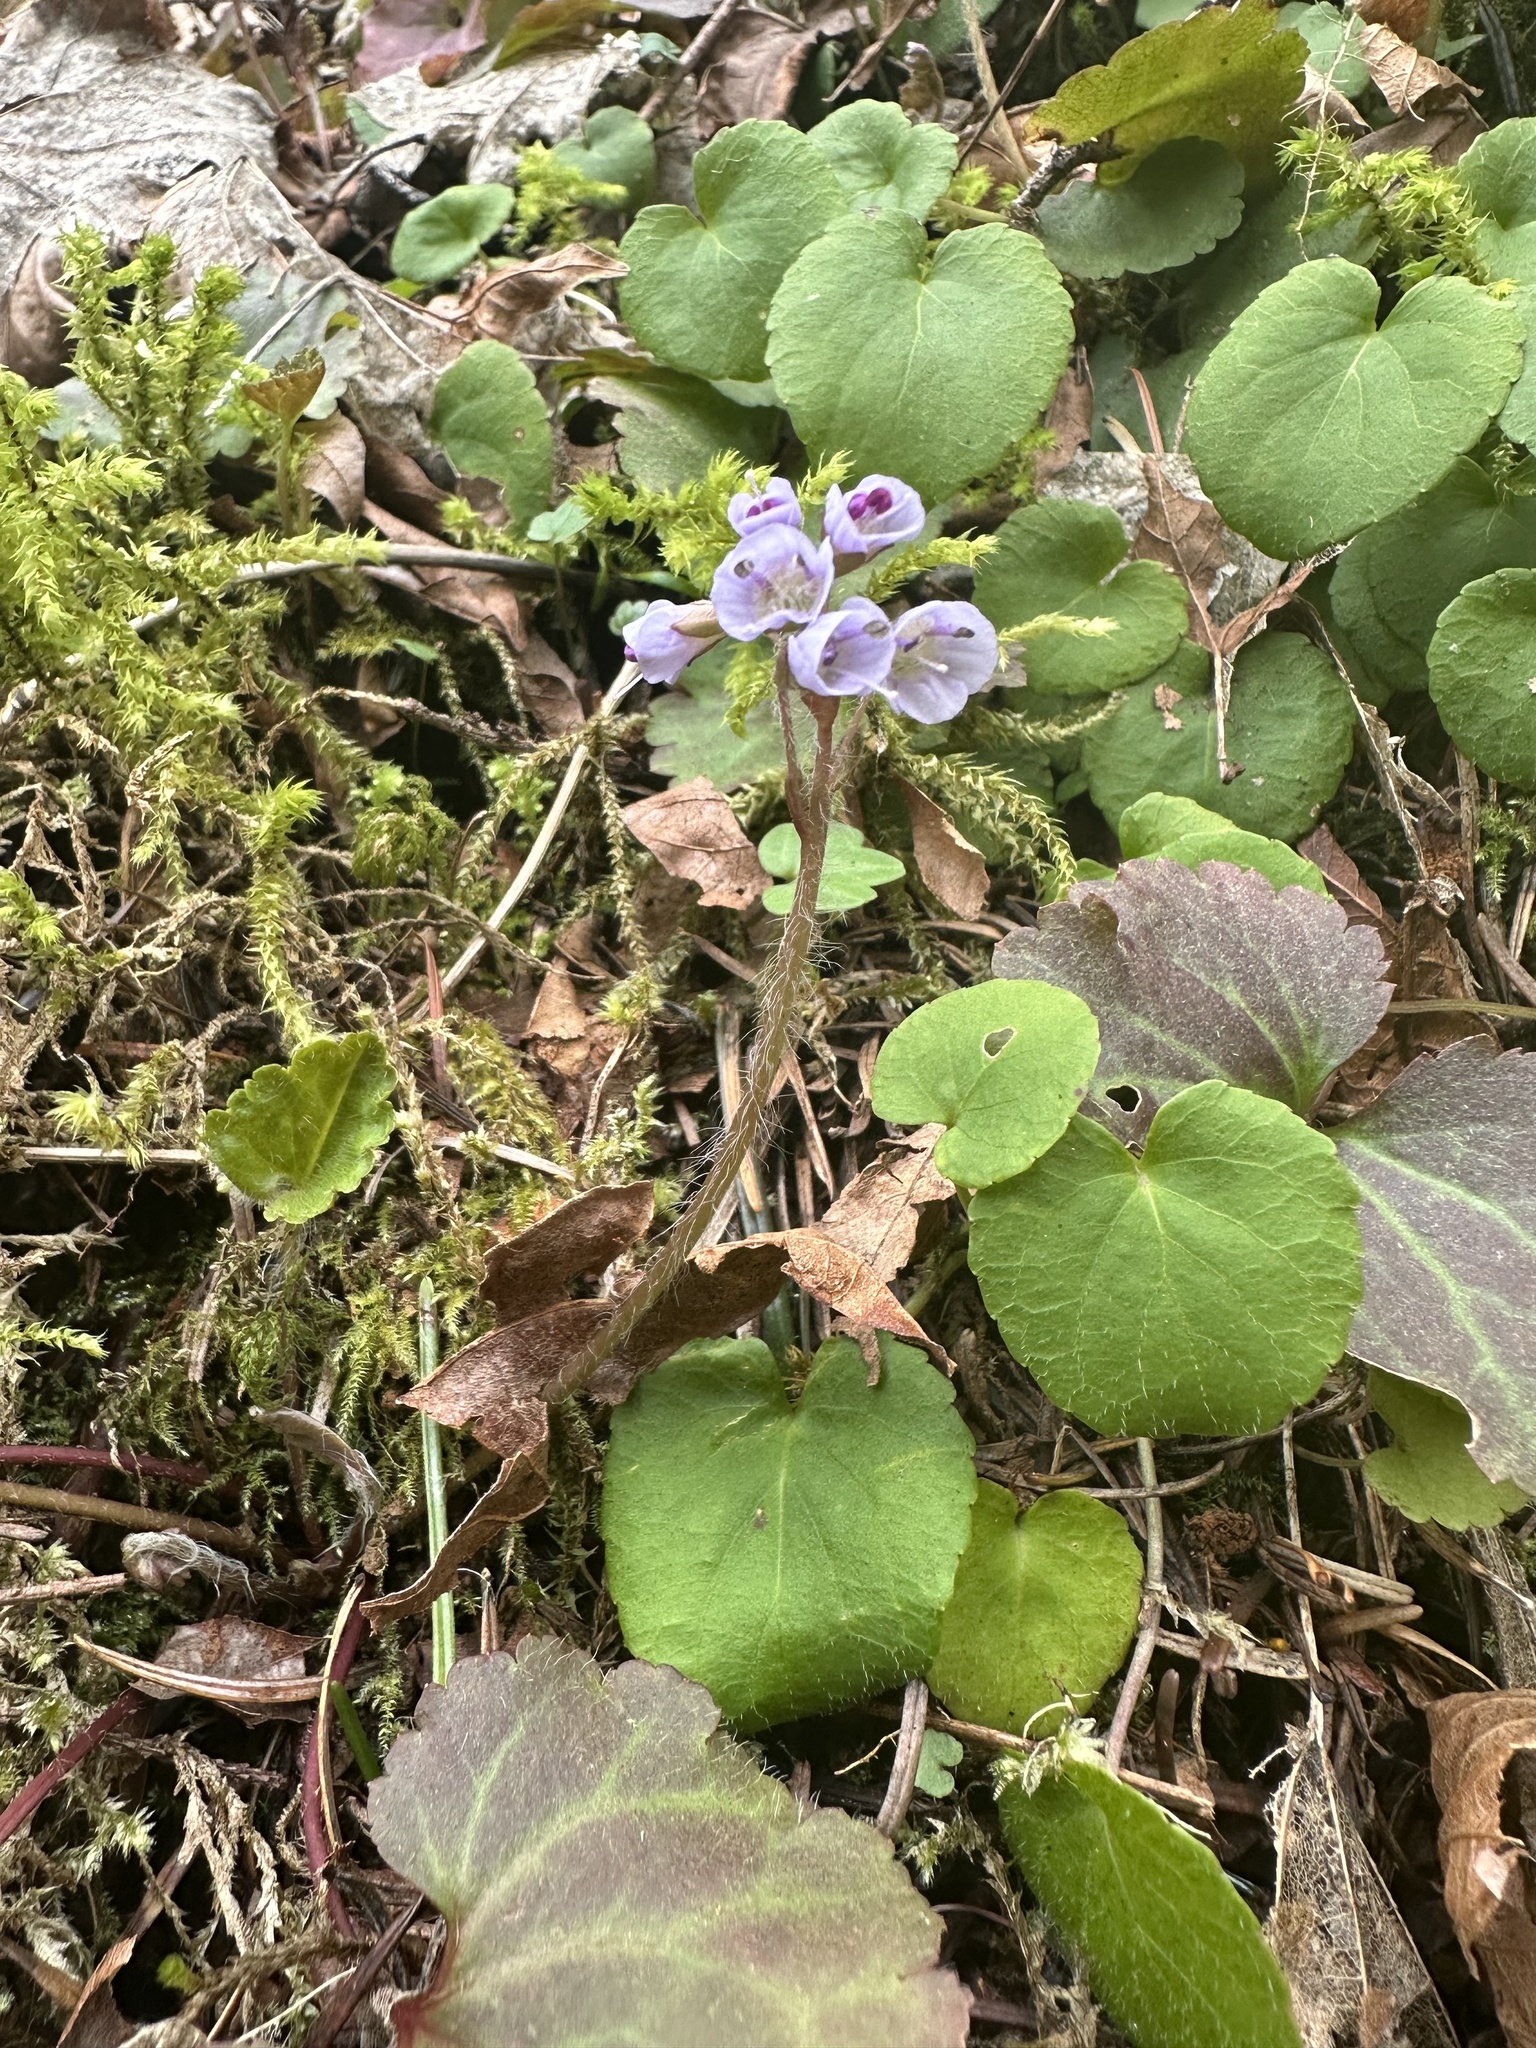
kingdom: Plantae
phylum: Tracheophyta
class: Magnoliopsida
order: Lamiales
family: Plantaginaceae
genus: Synthyris
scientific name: Synthyris reniformis
